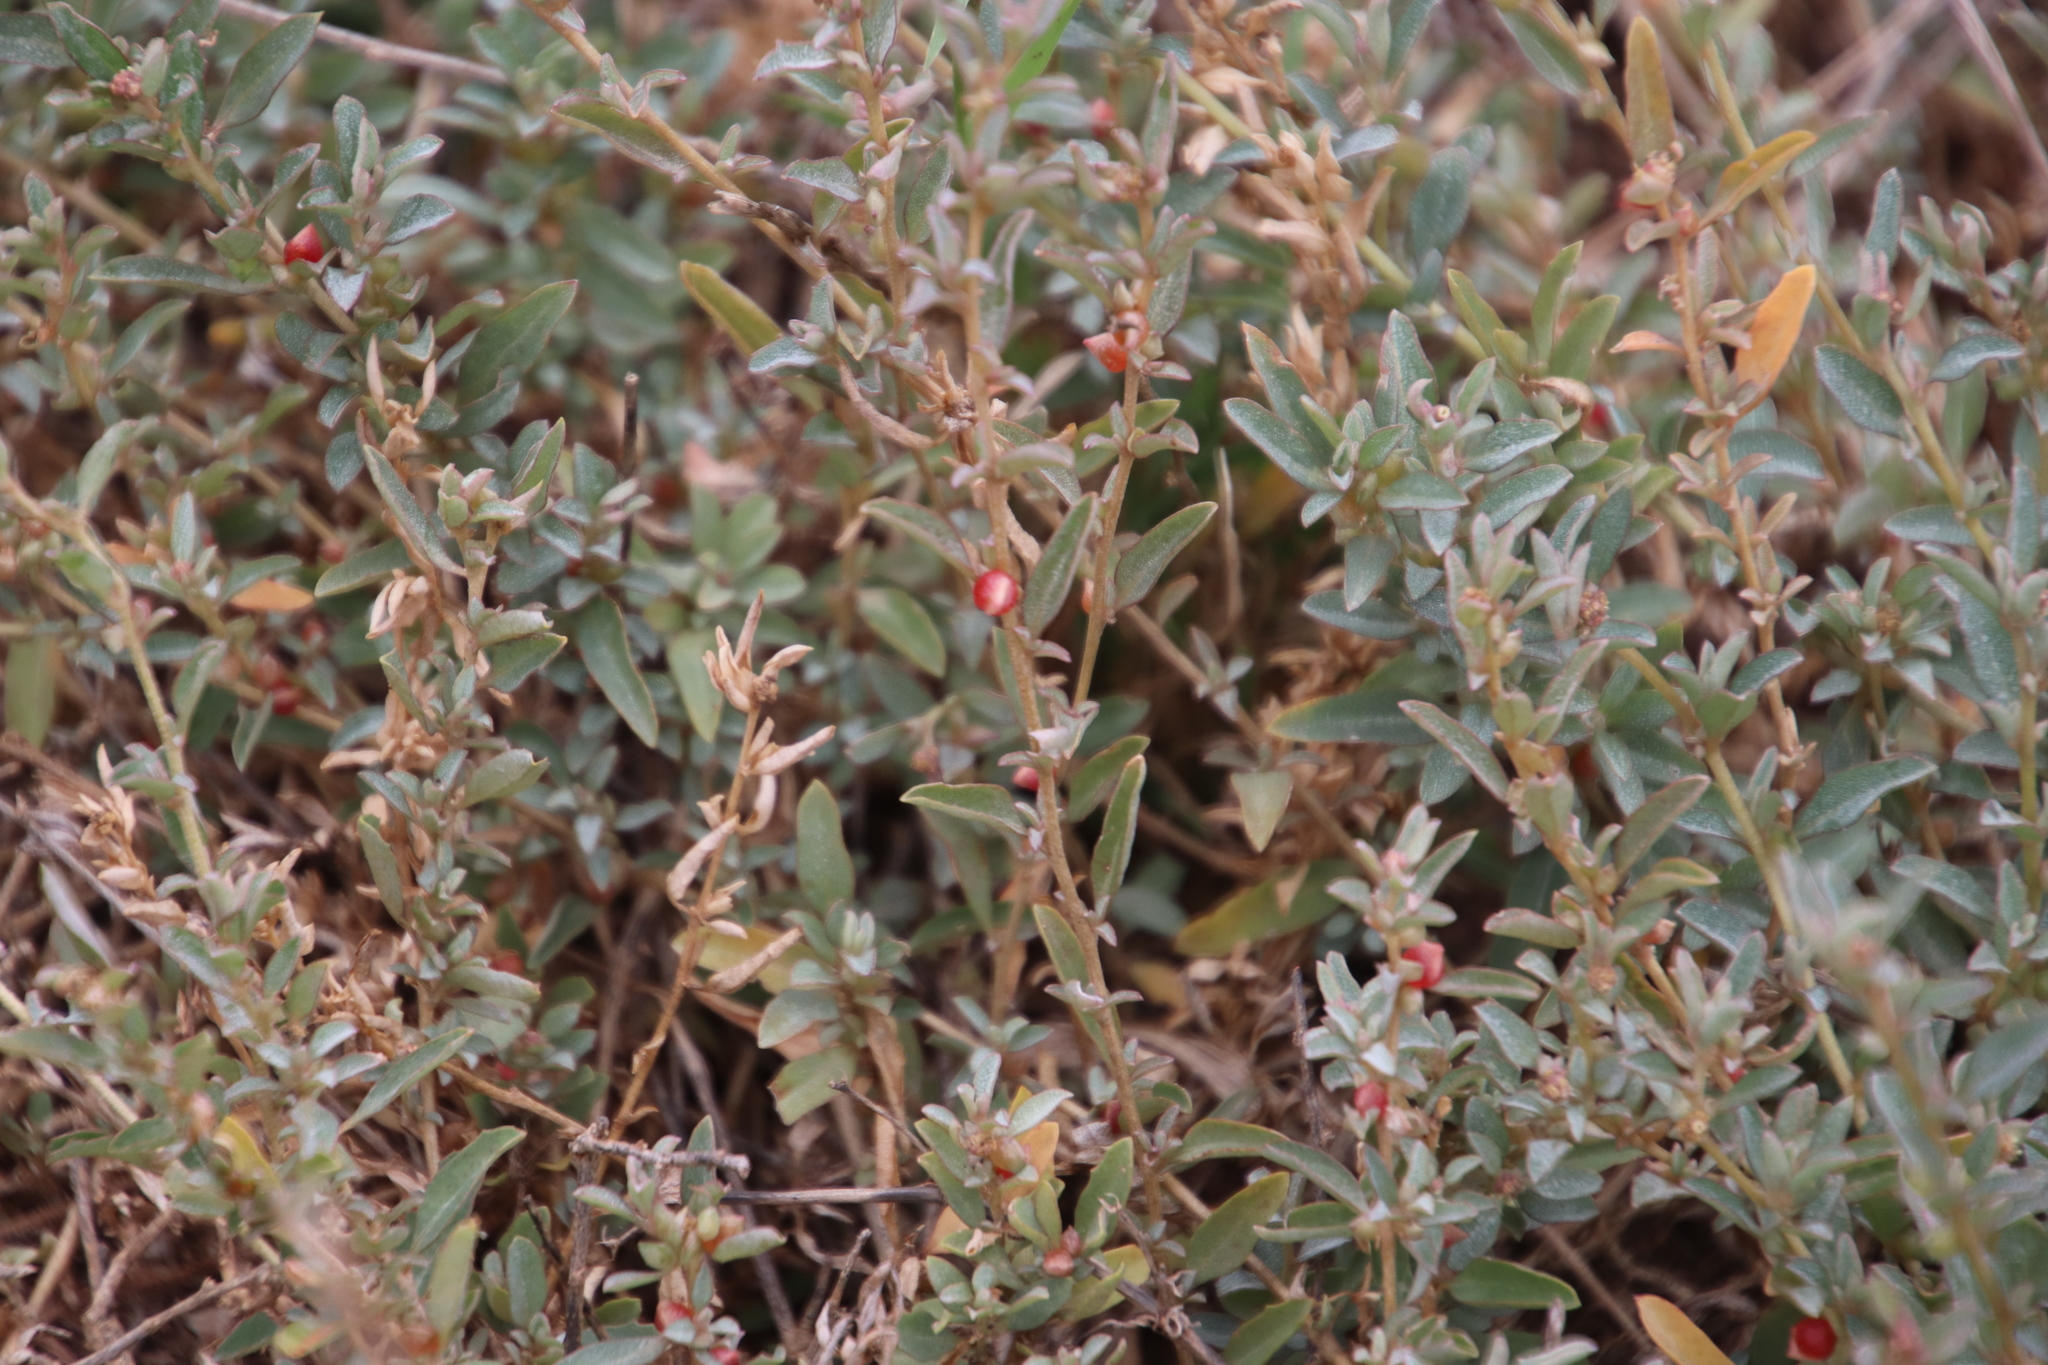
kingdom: Plantae
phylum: Tracheophyta
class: Magnoliopsida
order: Caryophyllales
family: Amaranthaceae
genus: Atriplex
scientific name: Atriplex semibaccata
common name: Australian saltbush
